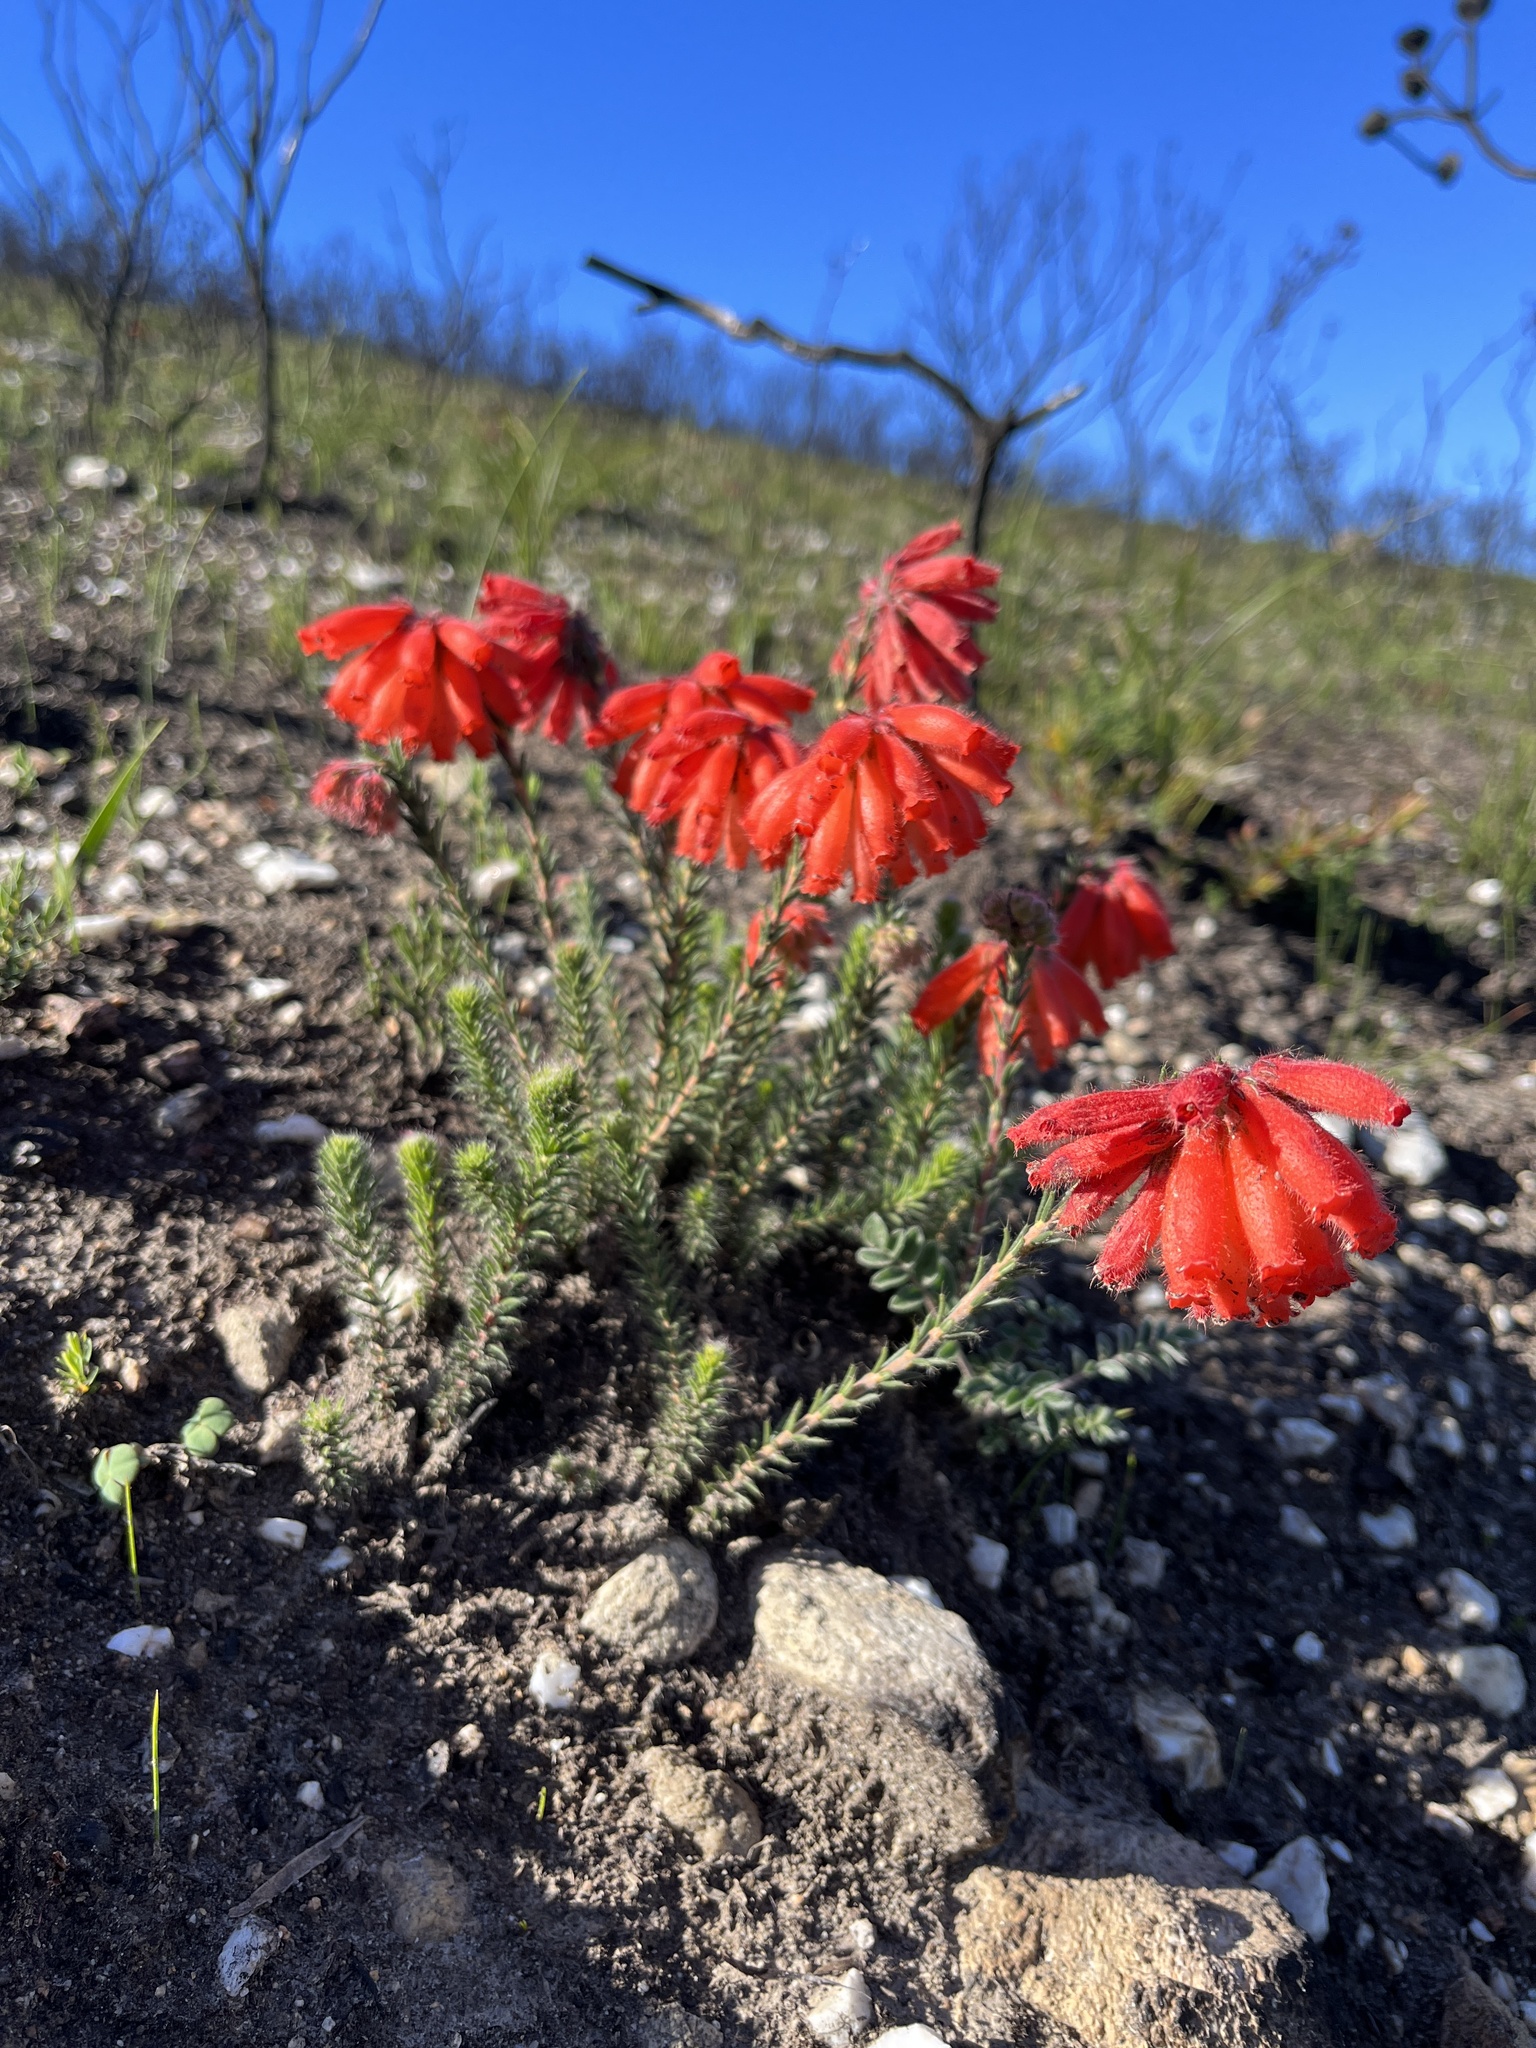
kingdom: Plantae
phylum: Tracheophyta
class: Magnoliopsida
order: Ericales
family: Ericaceae
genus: Erica
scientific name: Erica cerinthoides
